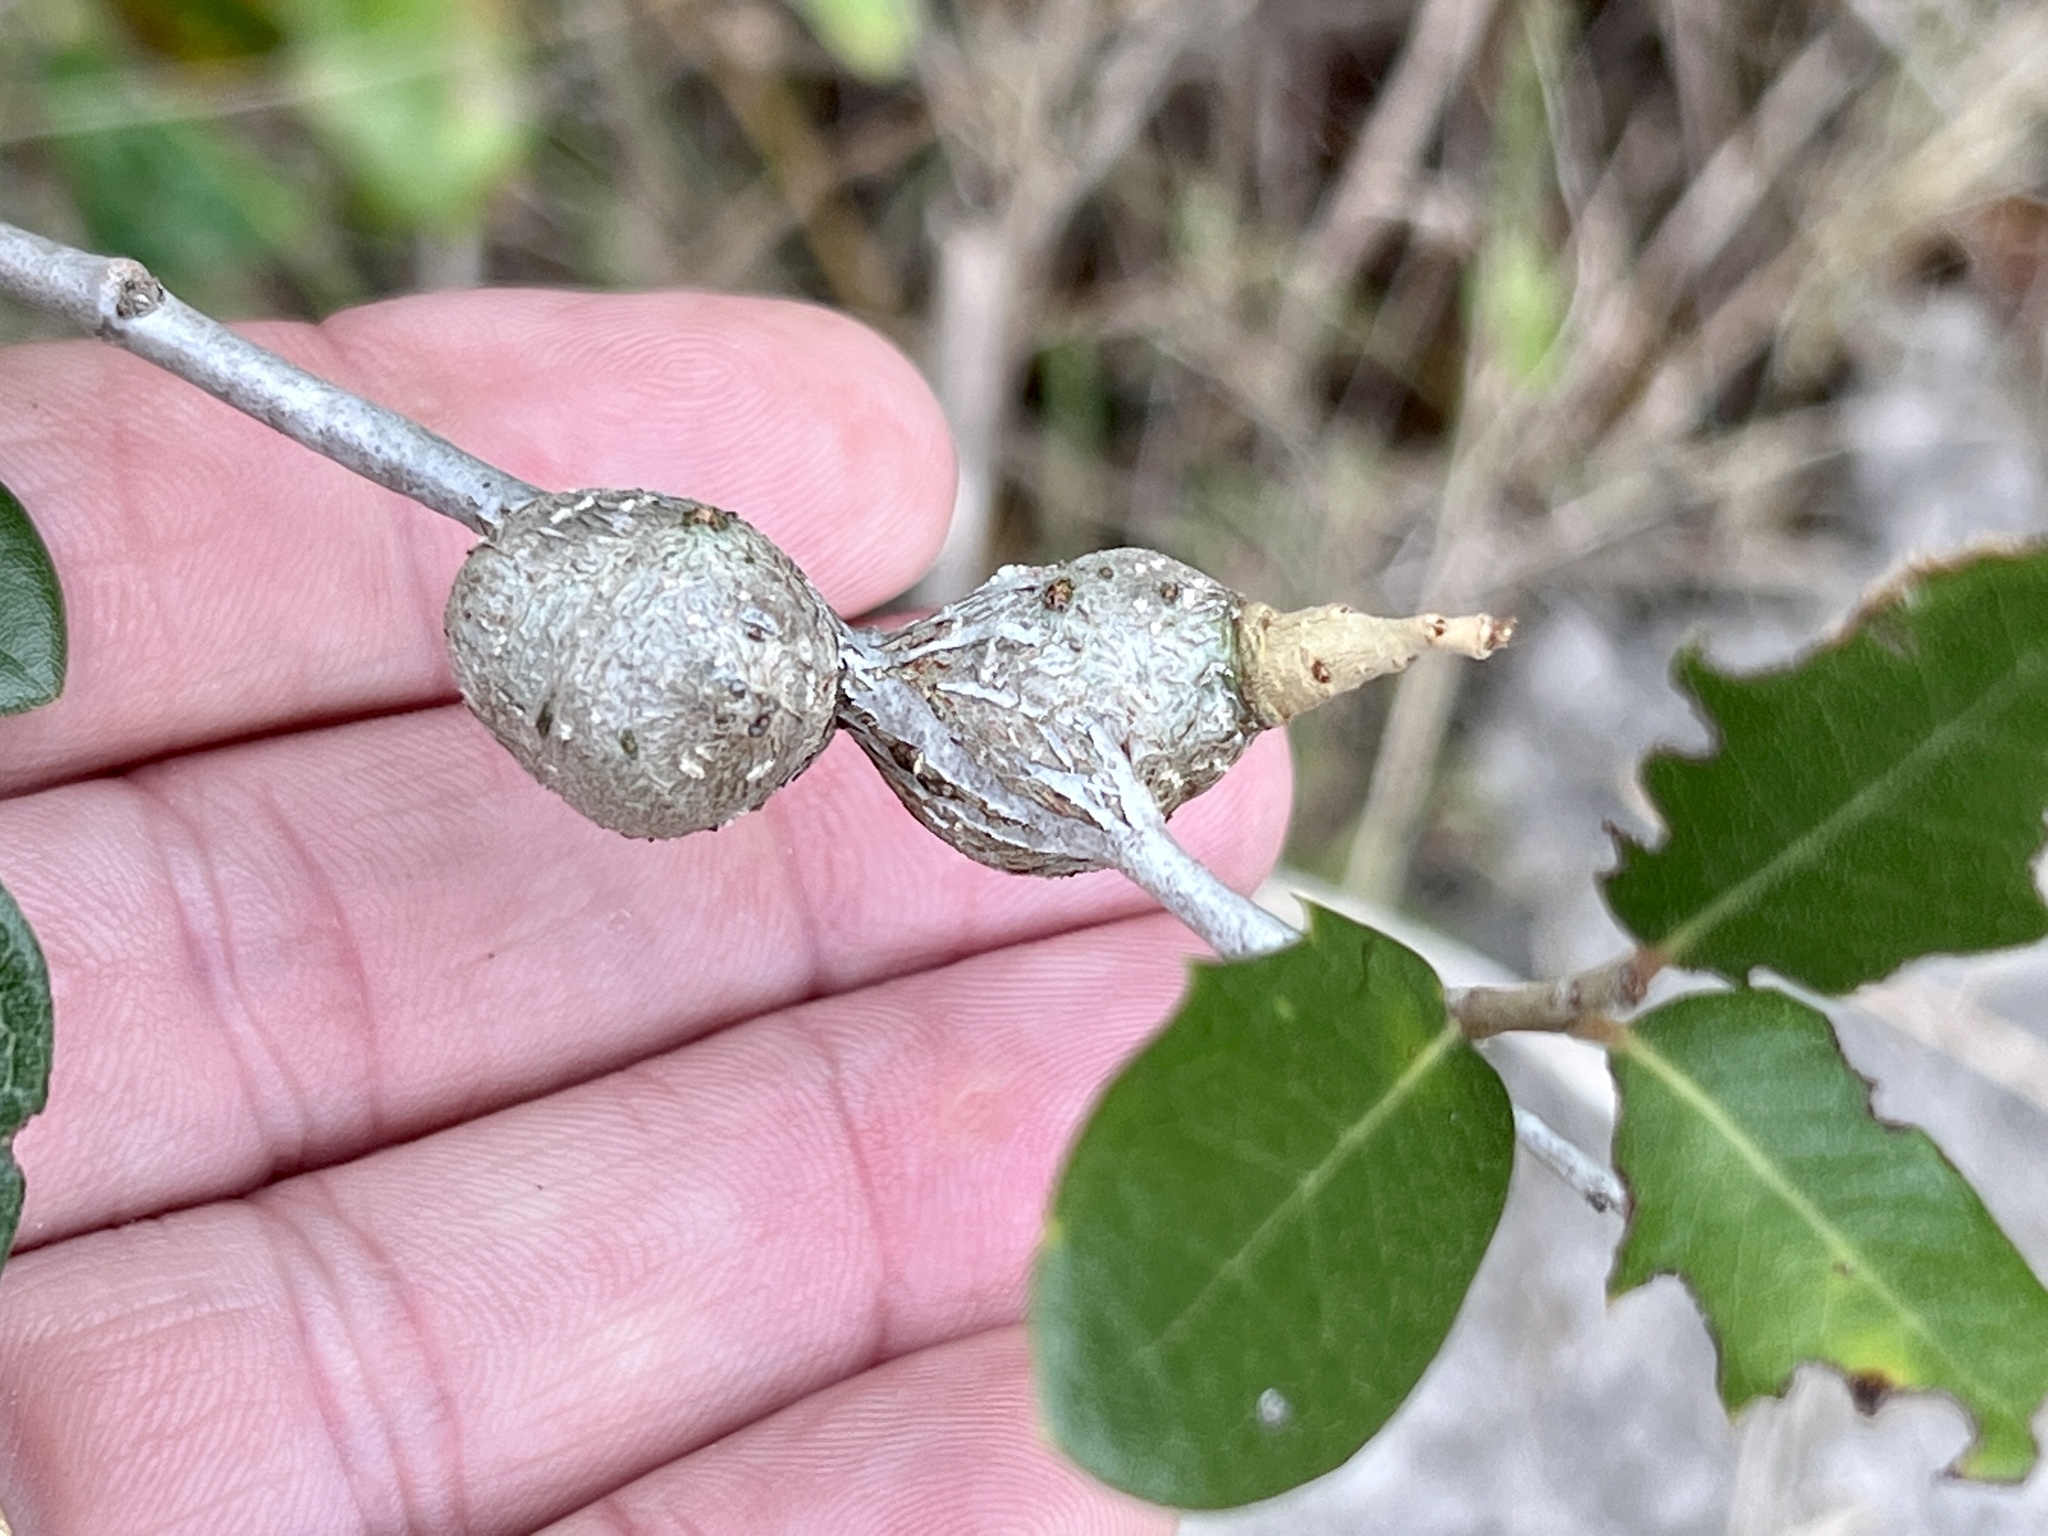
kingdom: Animalia
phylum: Arthropoda
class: Insecta
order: Hymenoptera
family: Cynipidae
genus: Callirhytis
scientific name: Callirhytis
